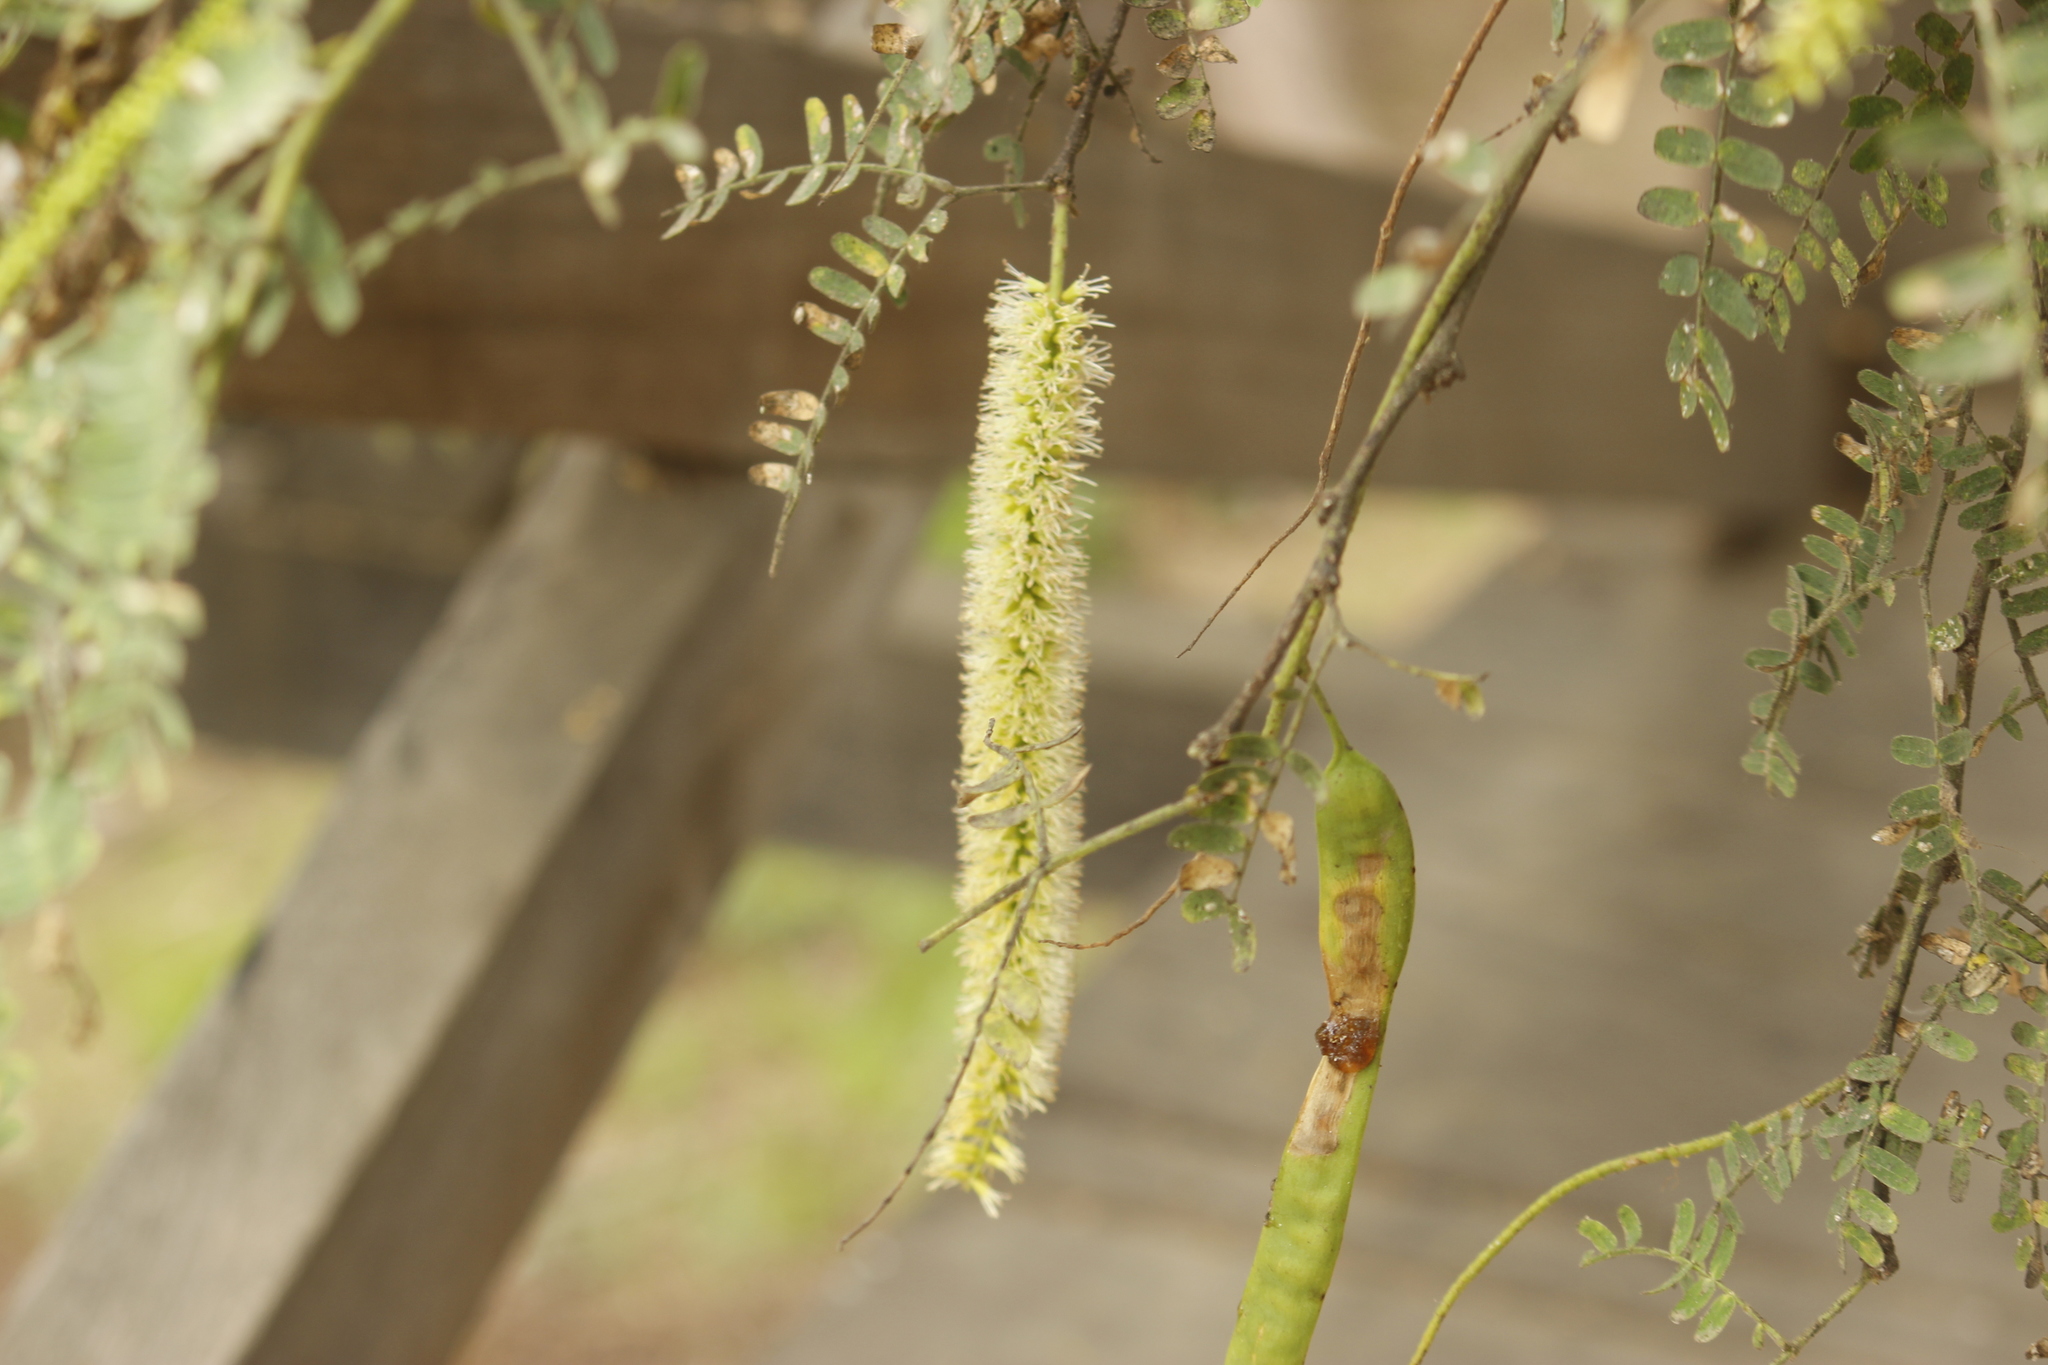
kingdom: Plantae
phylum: Tracheophyta
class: Magnoliopsida
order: Fabales
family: Fabaceae
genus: Prosopis
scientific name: Prosopis pallida
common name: Mesquite
